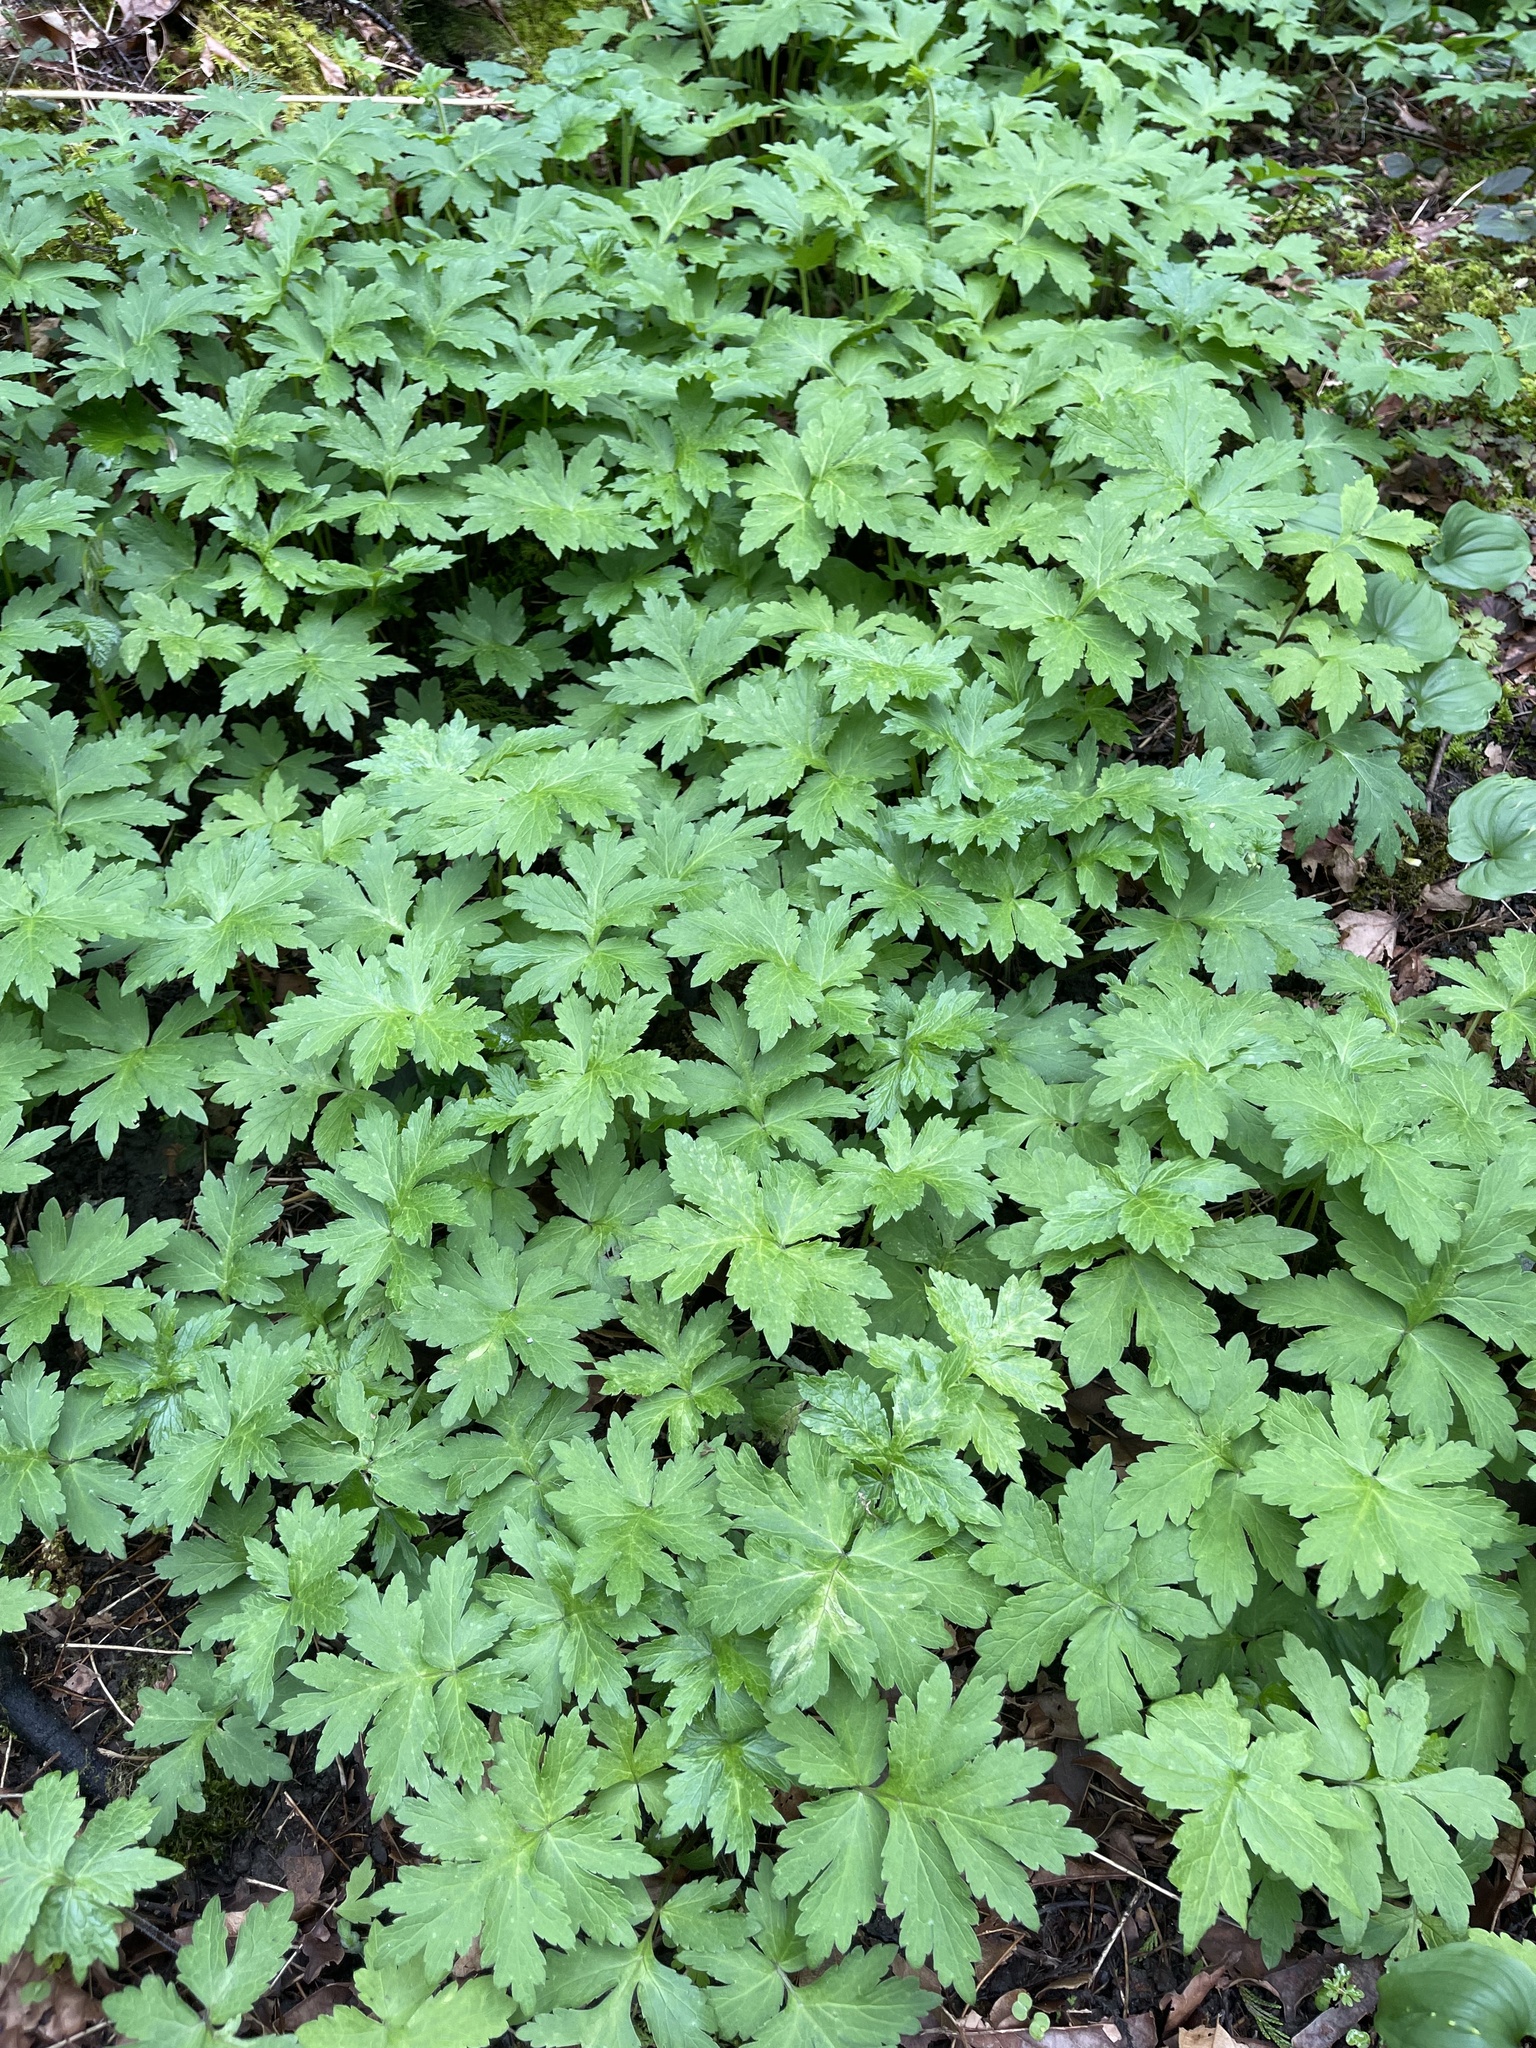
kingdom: Plantae
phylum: Tracheophyta
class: Magnoliopsida
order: Boraginales
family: Hydrophyllaceae
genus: Hydrophyllum
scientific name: Hydrophyllum tenuipes
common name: Pacific waterleaf
